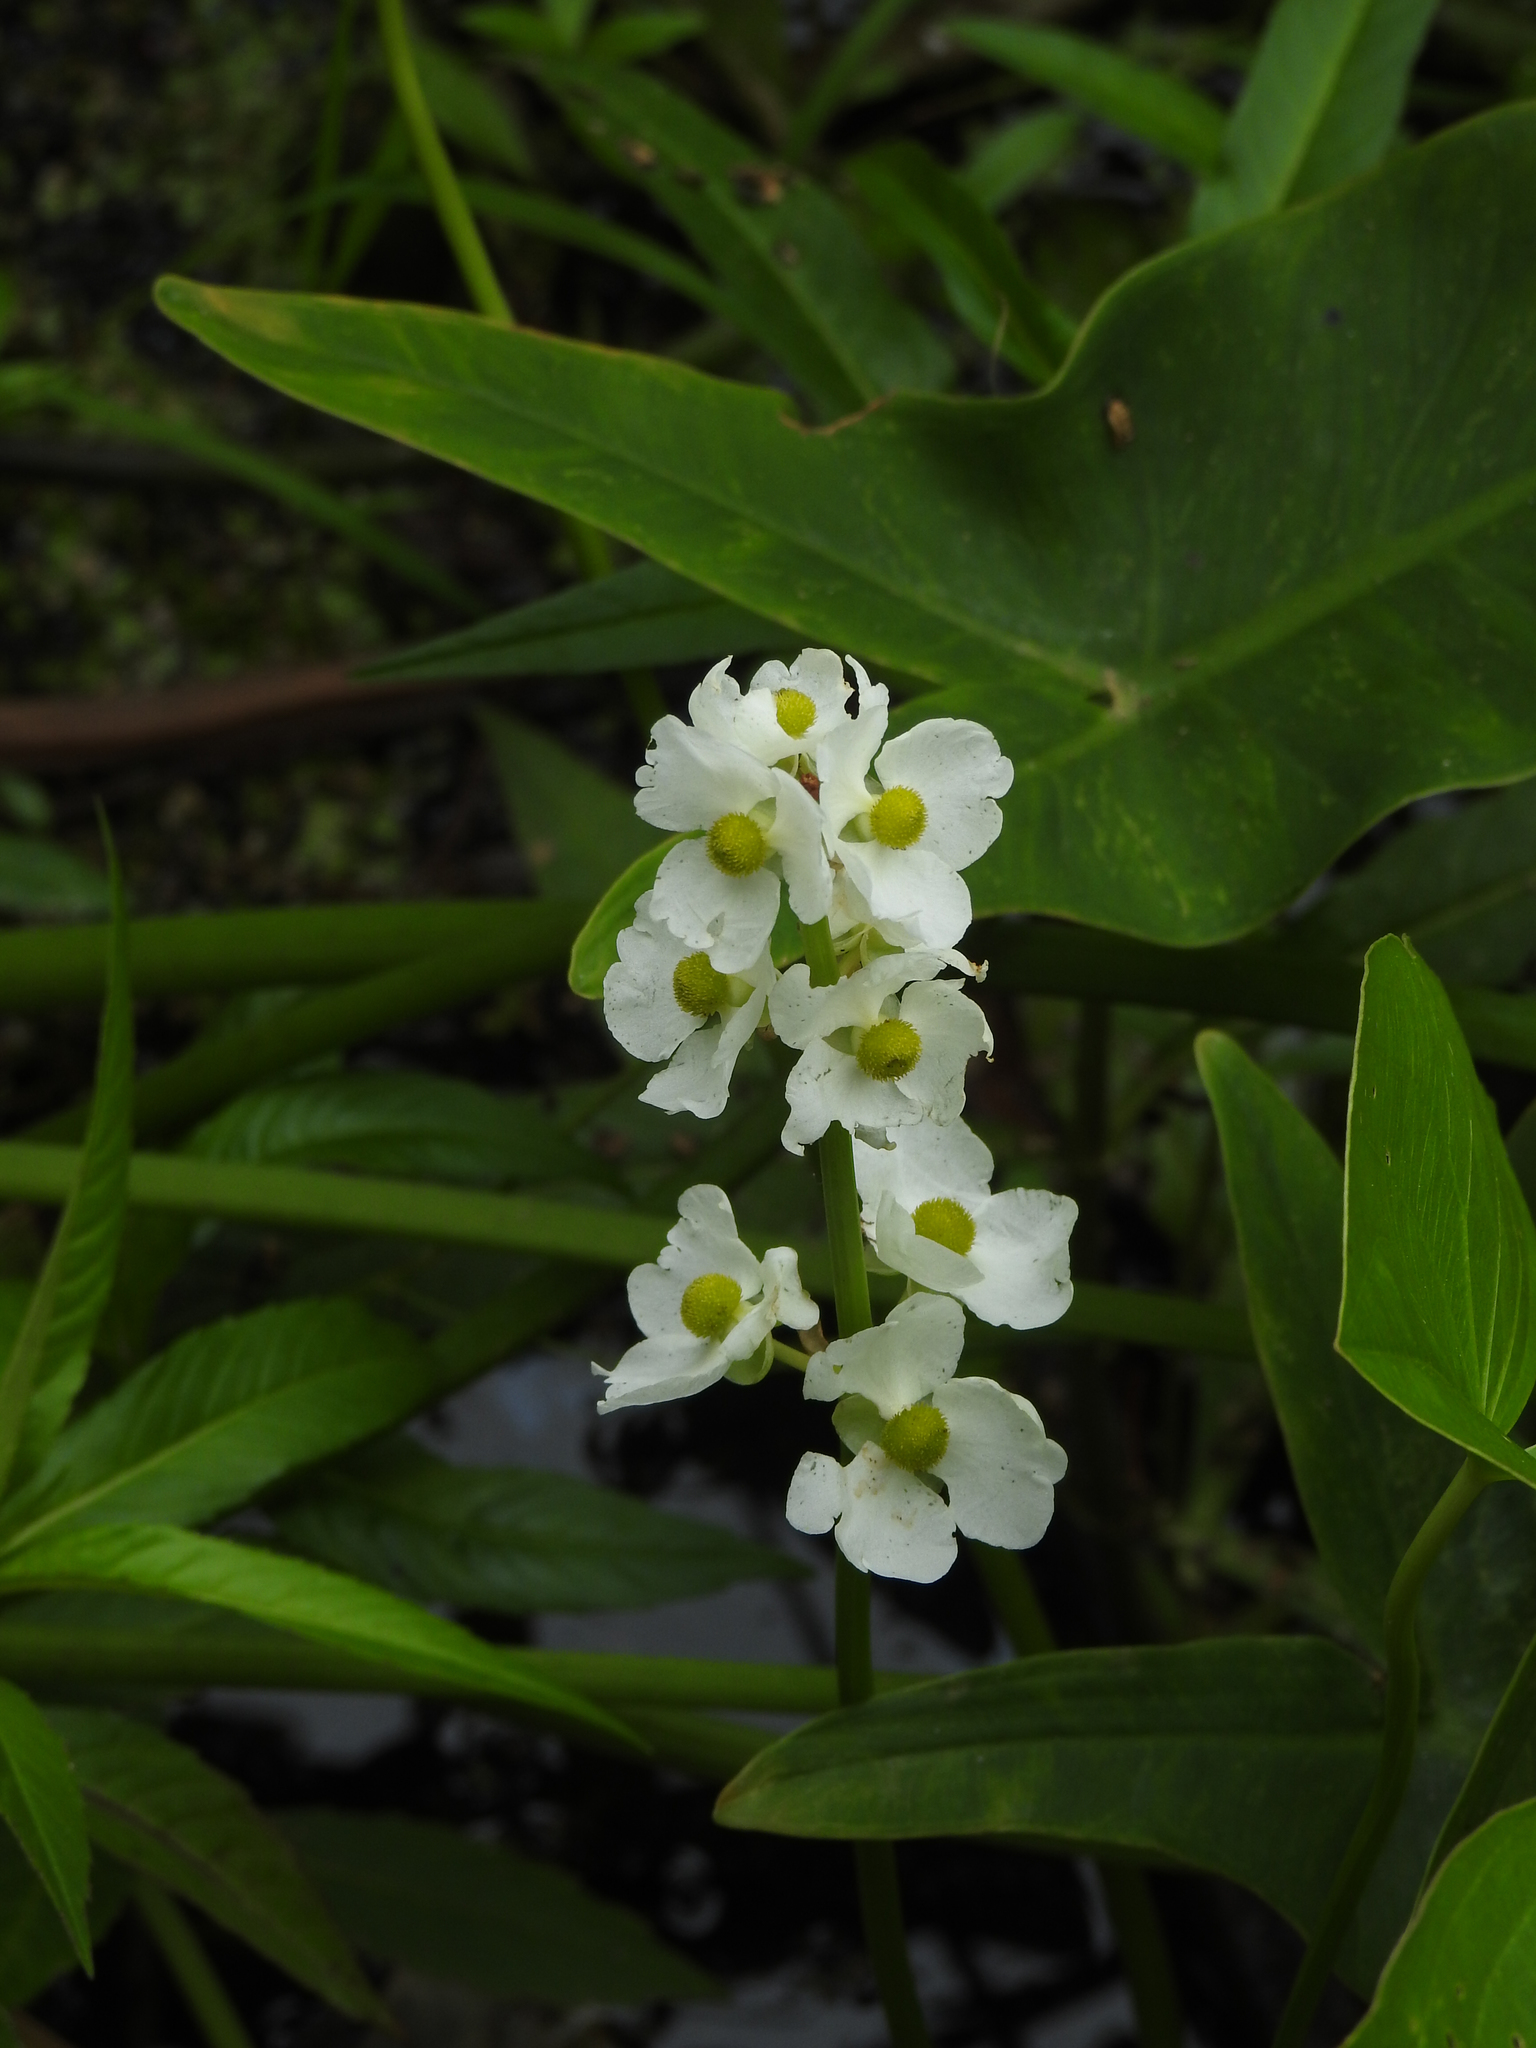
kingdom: Plantae
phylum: Tracheophyta
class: Liliopsida
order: Alismatales
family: Alismataceae
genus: Sagittaria
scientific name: Sagittaria latifolia
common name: Duck-potato
